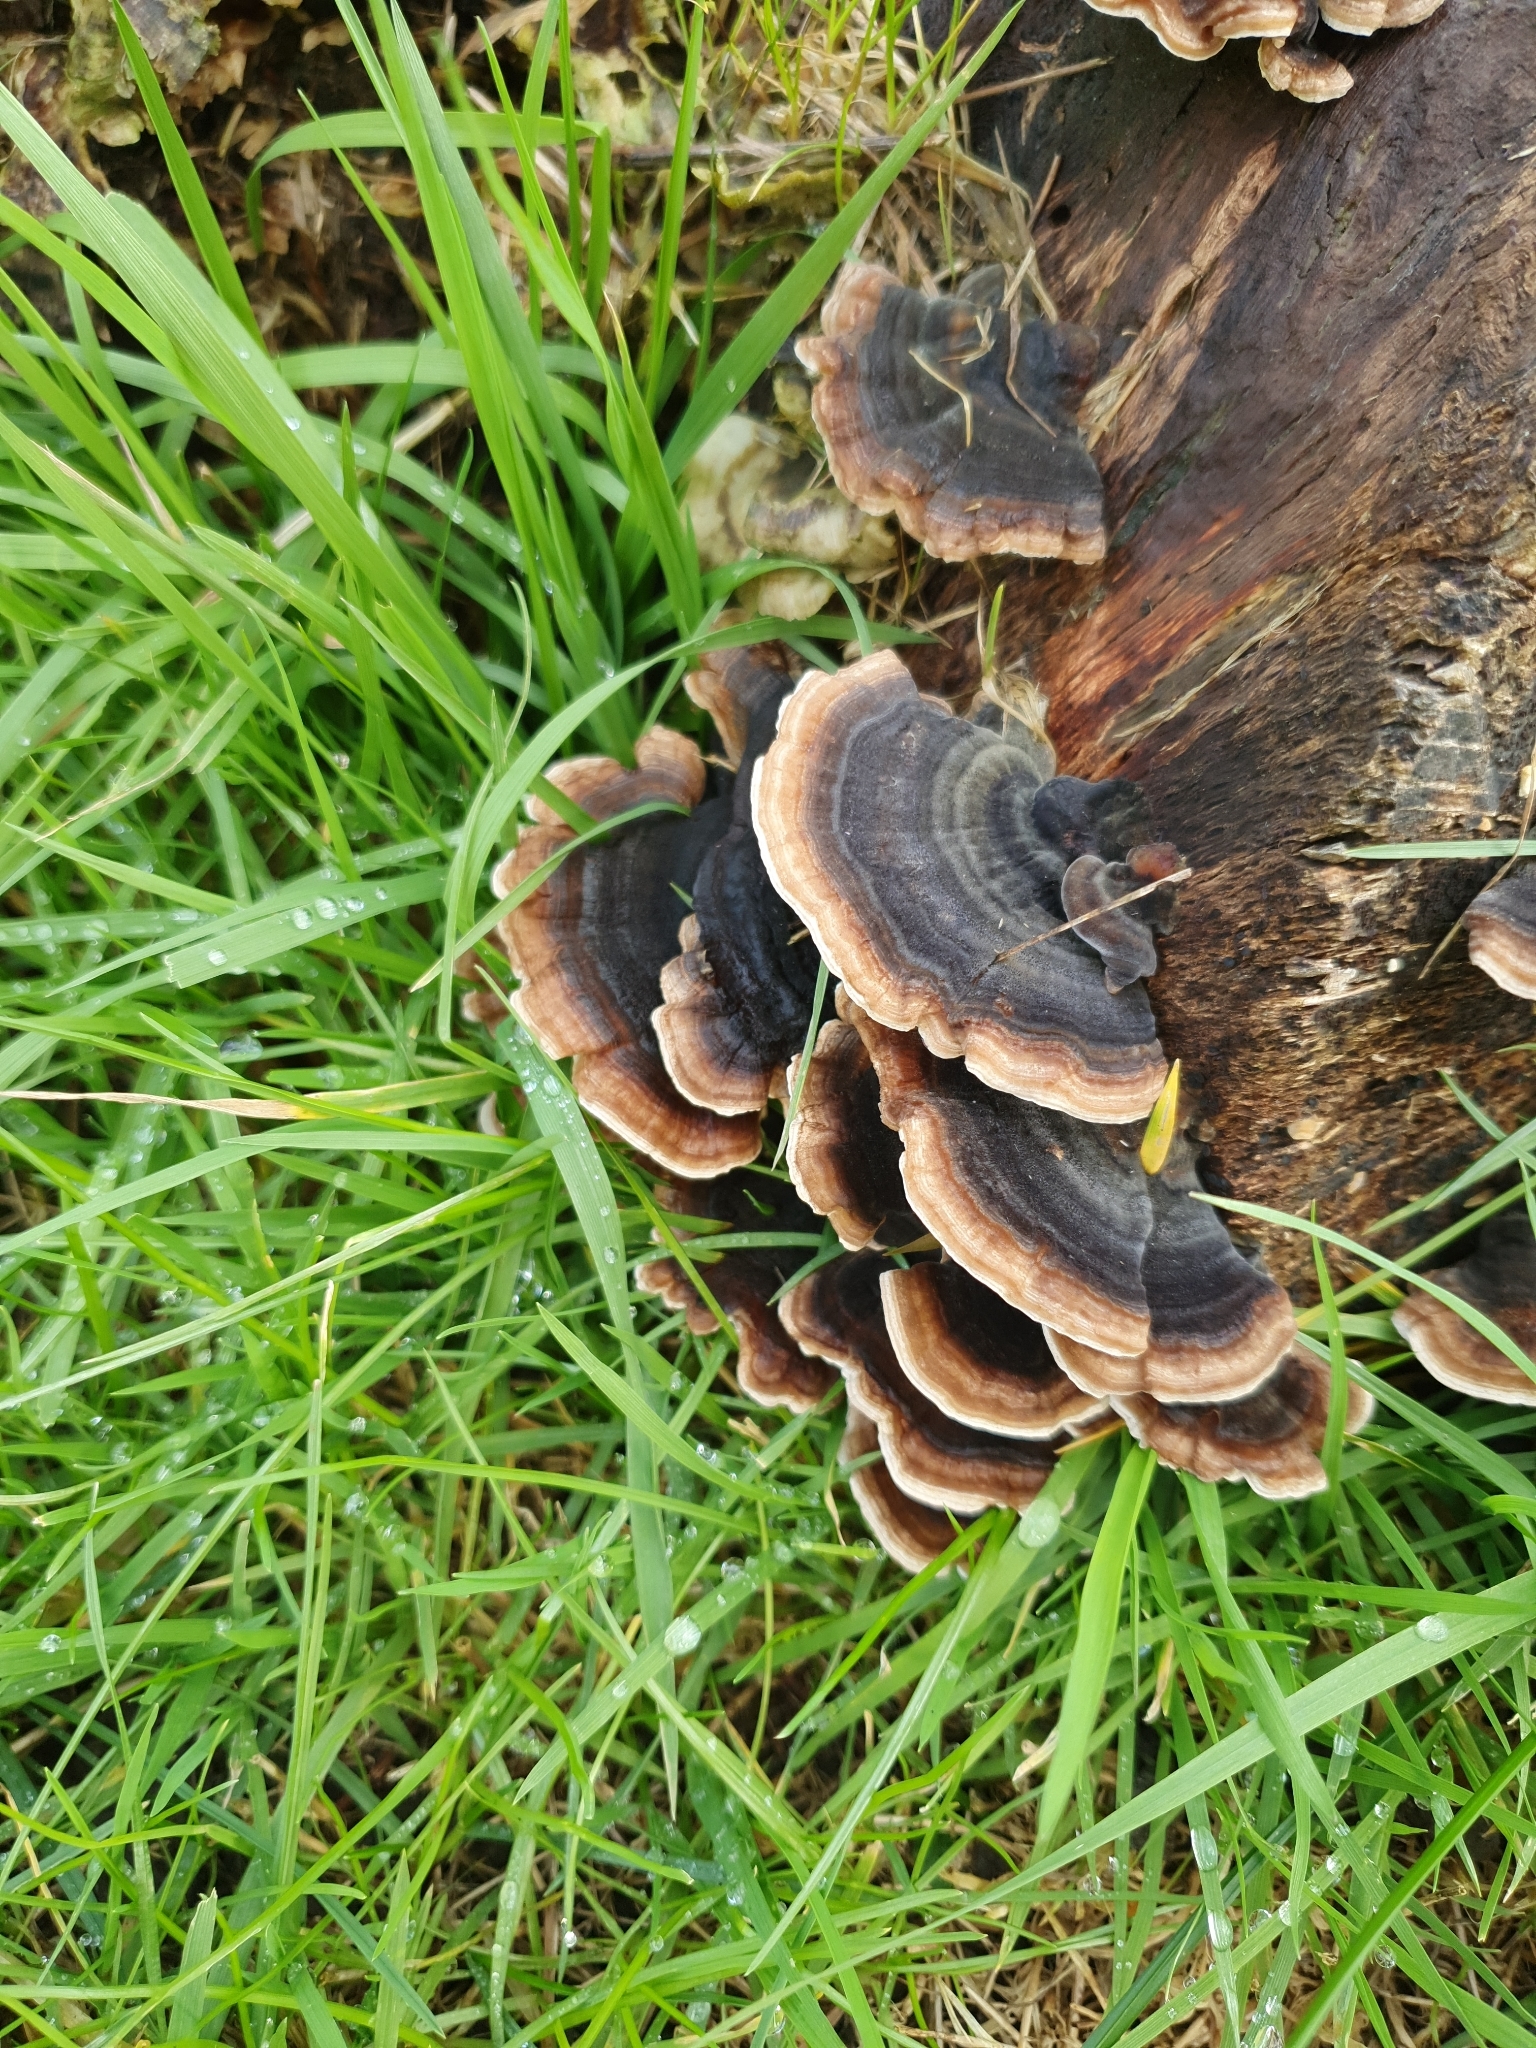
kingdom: Fungi
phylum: Basidiomycota
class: Agaricomycetes
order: Polyporales
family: Polyporaceae
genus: Trametes
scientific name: Trametes versicolor
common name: Turkeytail
